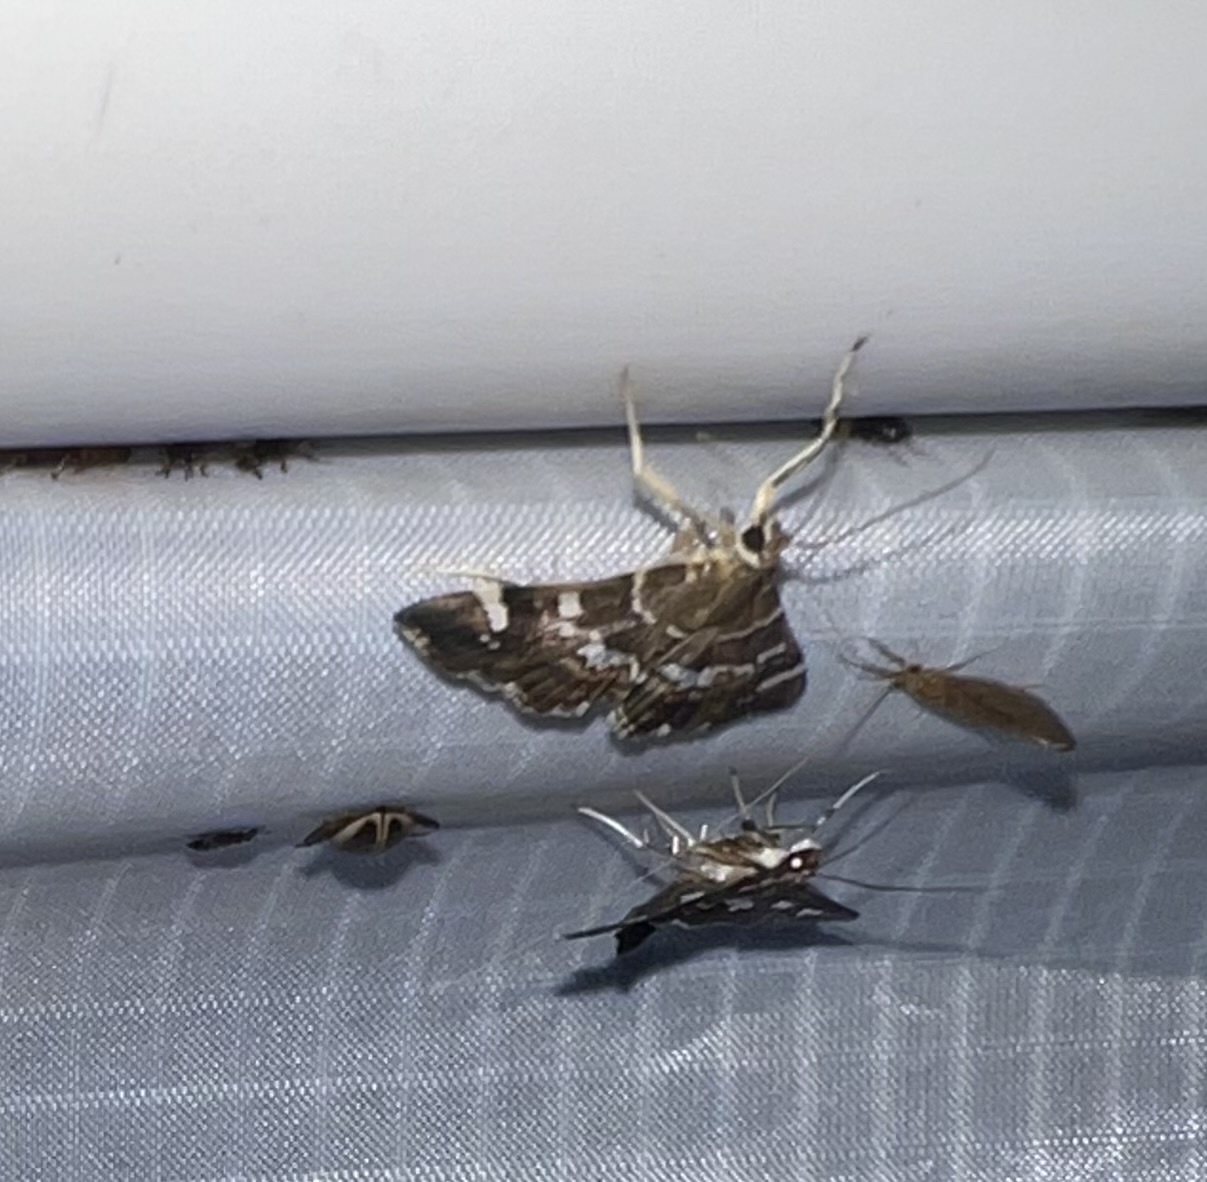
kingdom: Animalia
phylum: Arthropoda
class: Insecta
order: Lepidoptera
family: Crambidae
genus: Hymenia
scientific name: Hymenia perspectalis
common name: Spotted beet webworm
